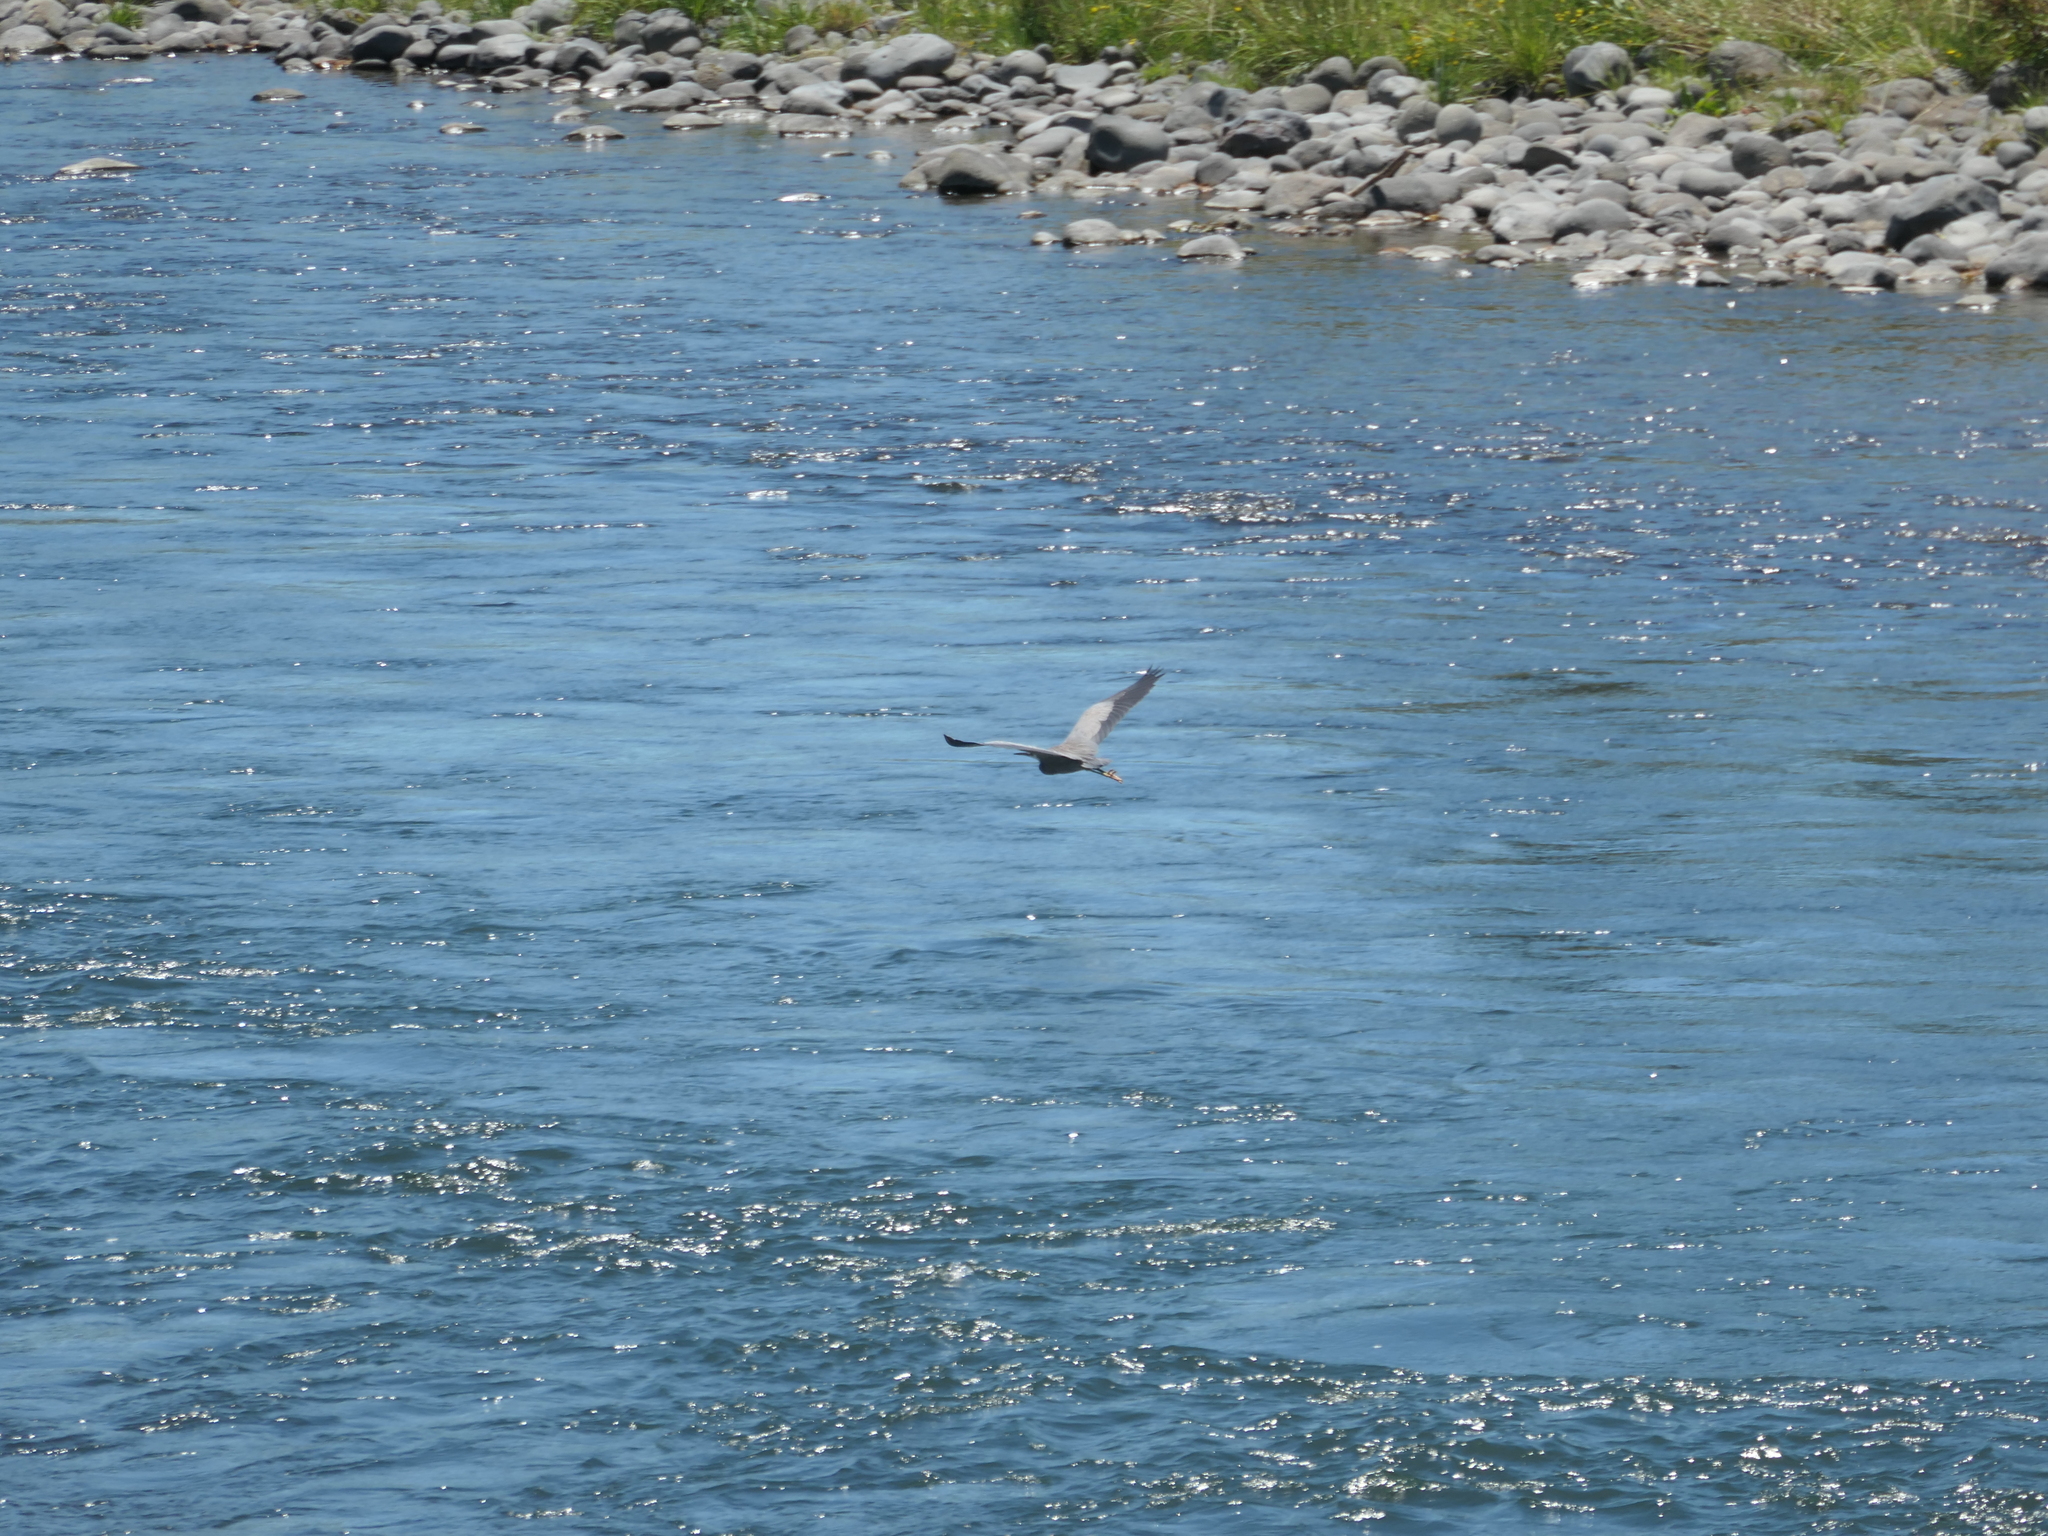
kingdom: Animalia
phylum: Chordata
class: Aves
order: Pelecaniformes
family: Ardeidae
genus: Egretta
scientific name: Egretta novaehollandiae
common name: White-faced heron
